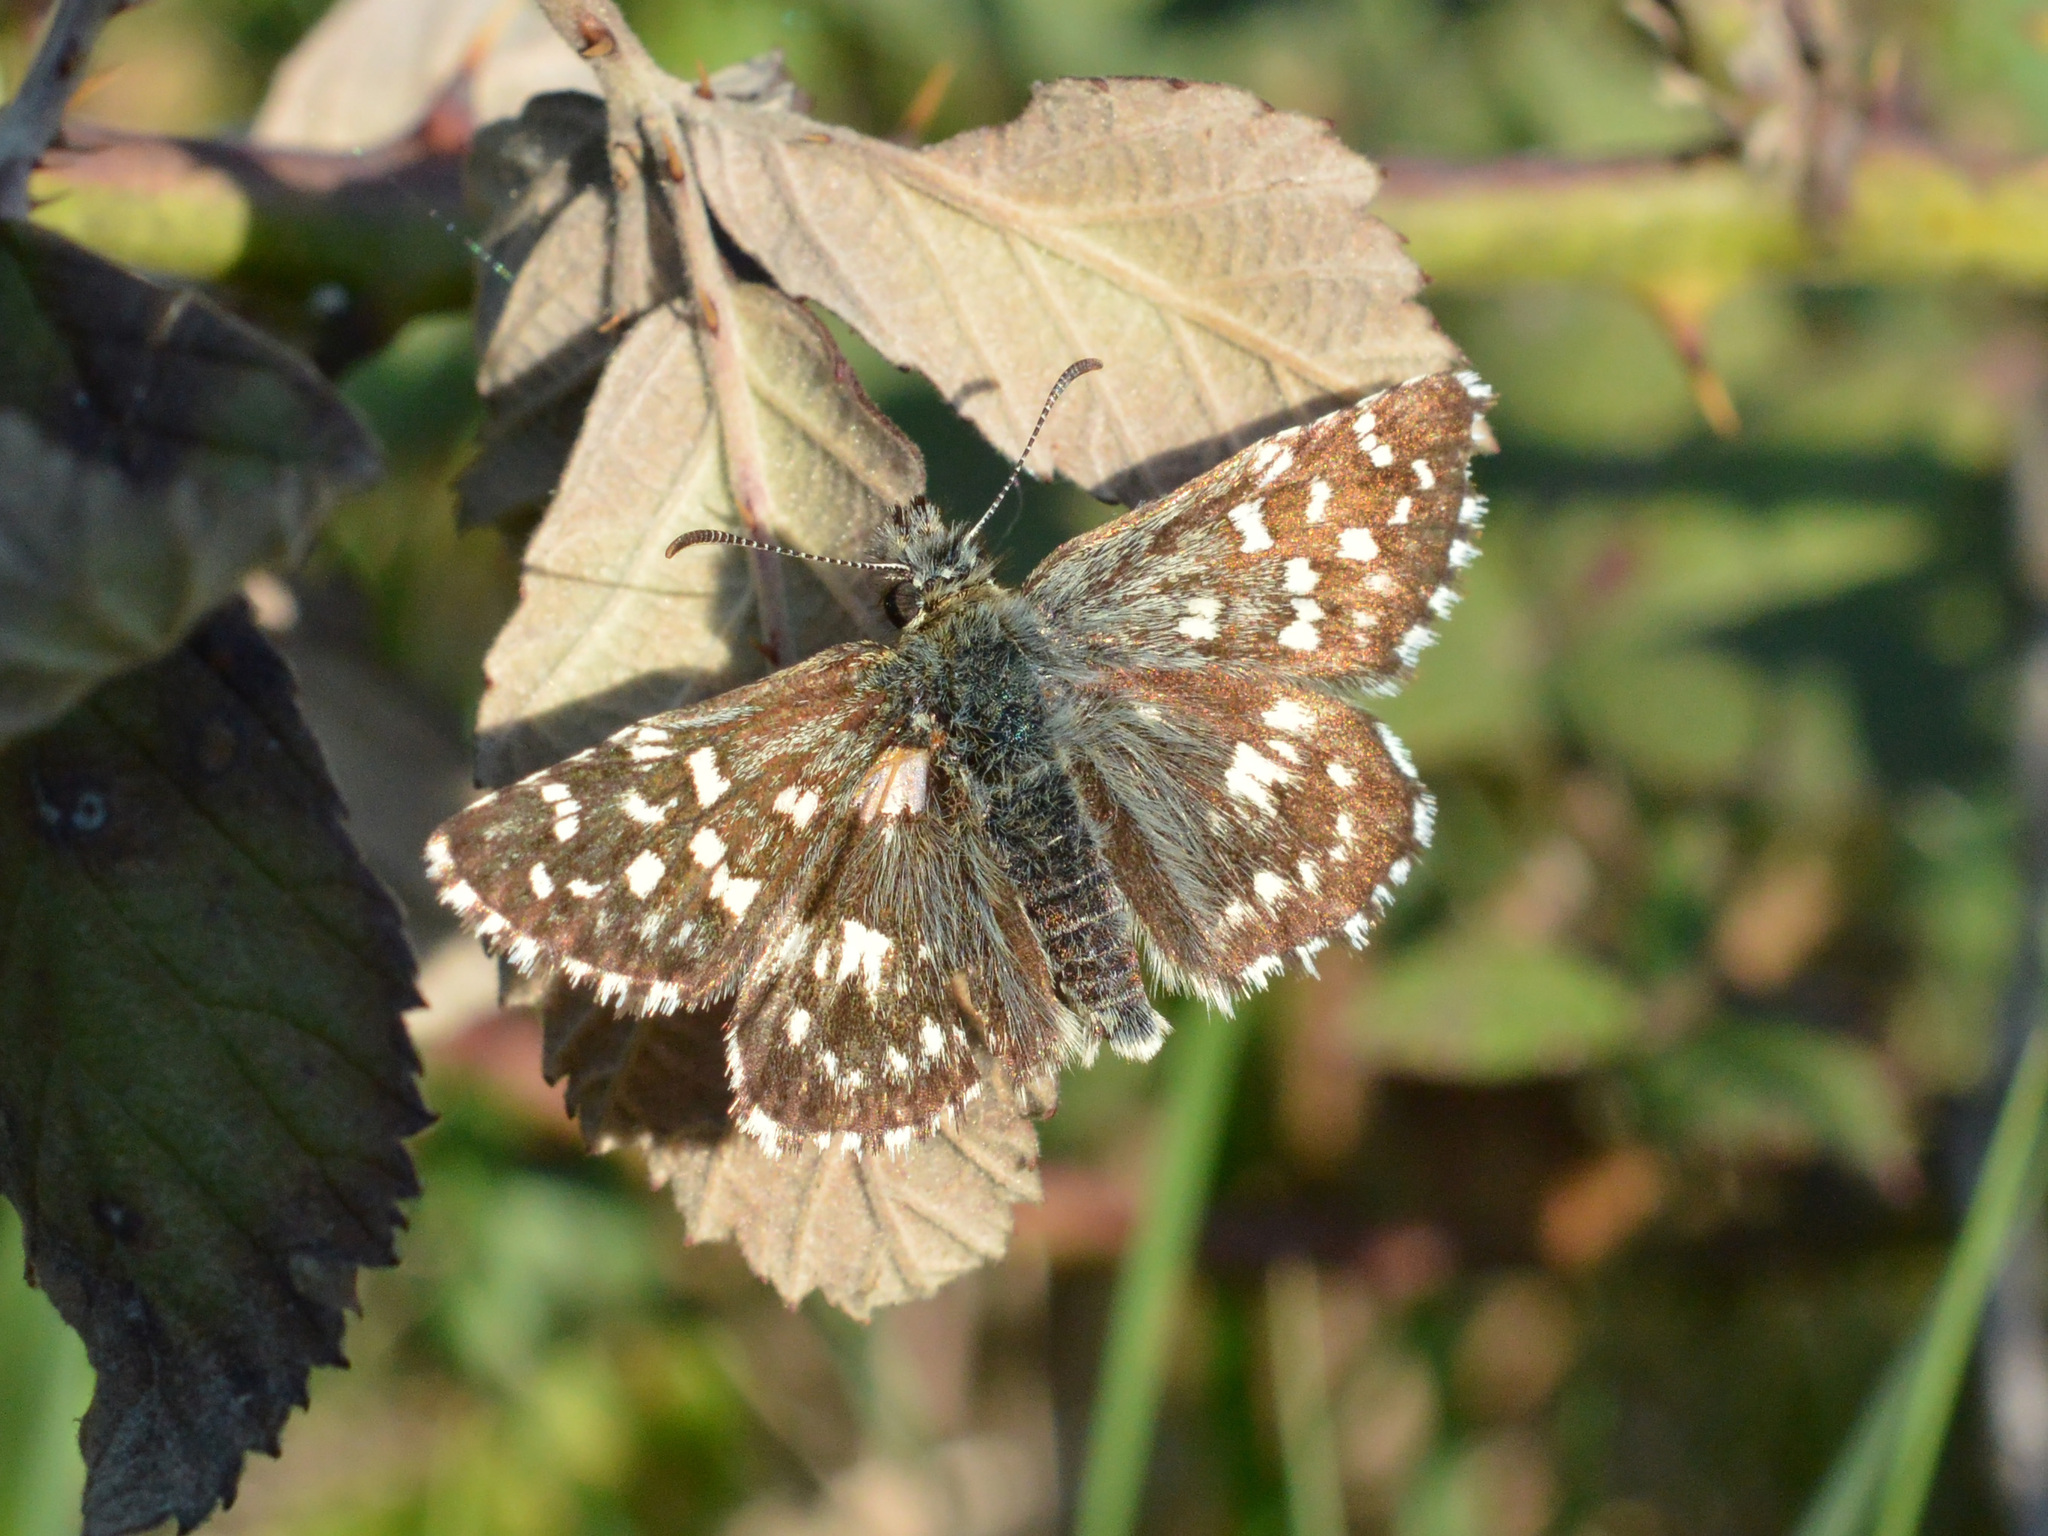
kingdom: Animalia
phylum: Arthropoda
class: Insecta
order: Lepidoptera
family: Hesperiidae
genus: Pyrgus
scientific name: Pyrgus malvae
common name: Grizzled skipper
